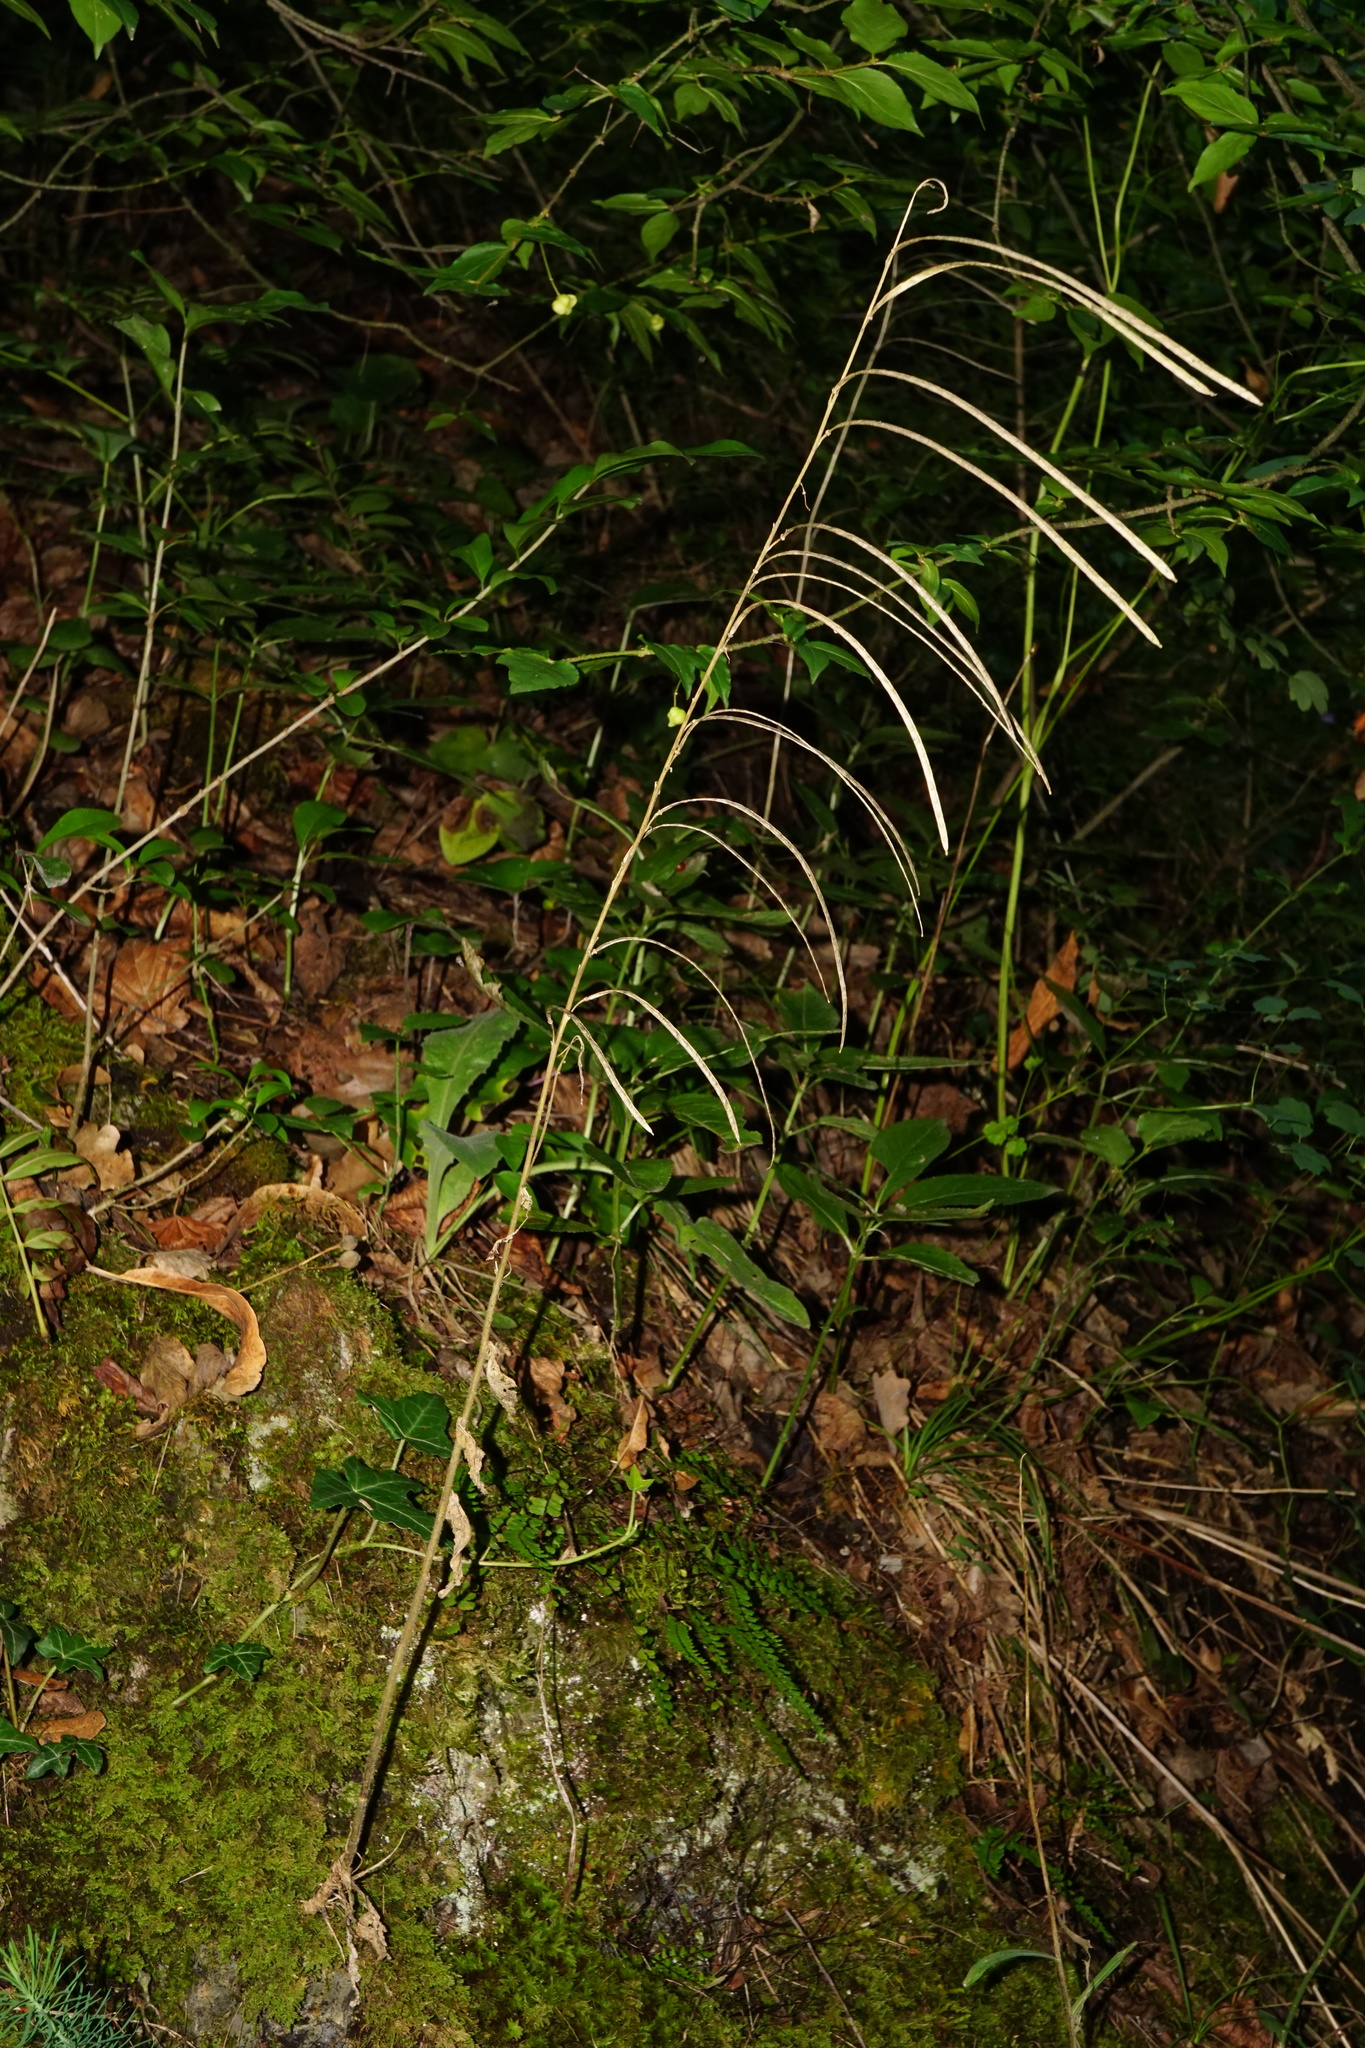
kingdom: Plantae
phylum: Tracheophyta
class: Magnoliopsida
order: Brassicales
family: Brassicaceae
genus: Pseudoturritis
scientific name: Pseudoturritis turrita
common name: Tower cress
